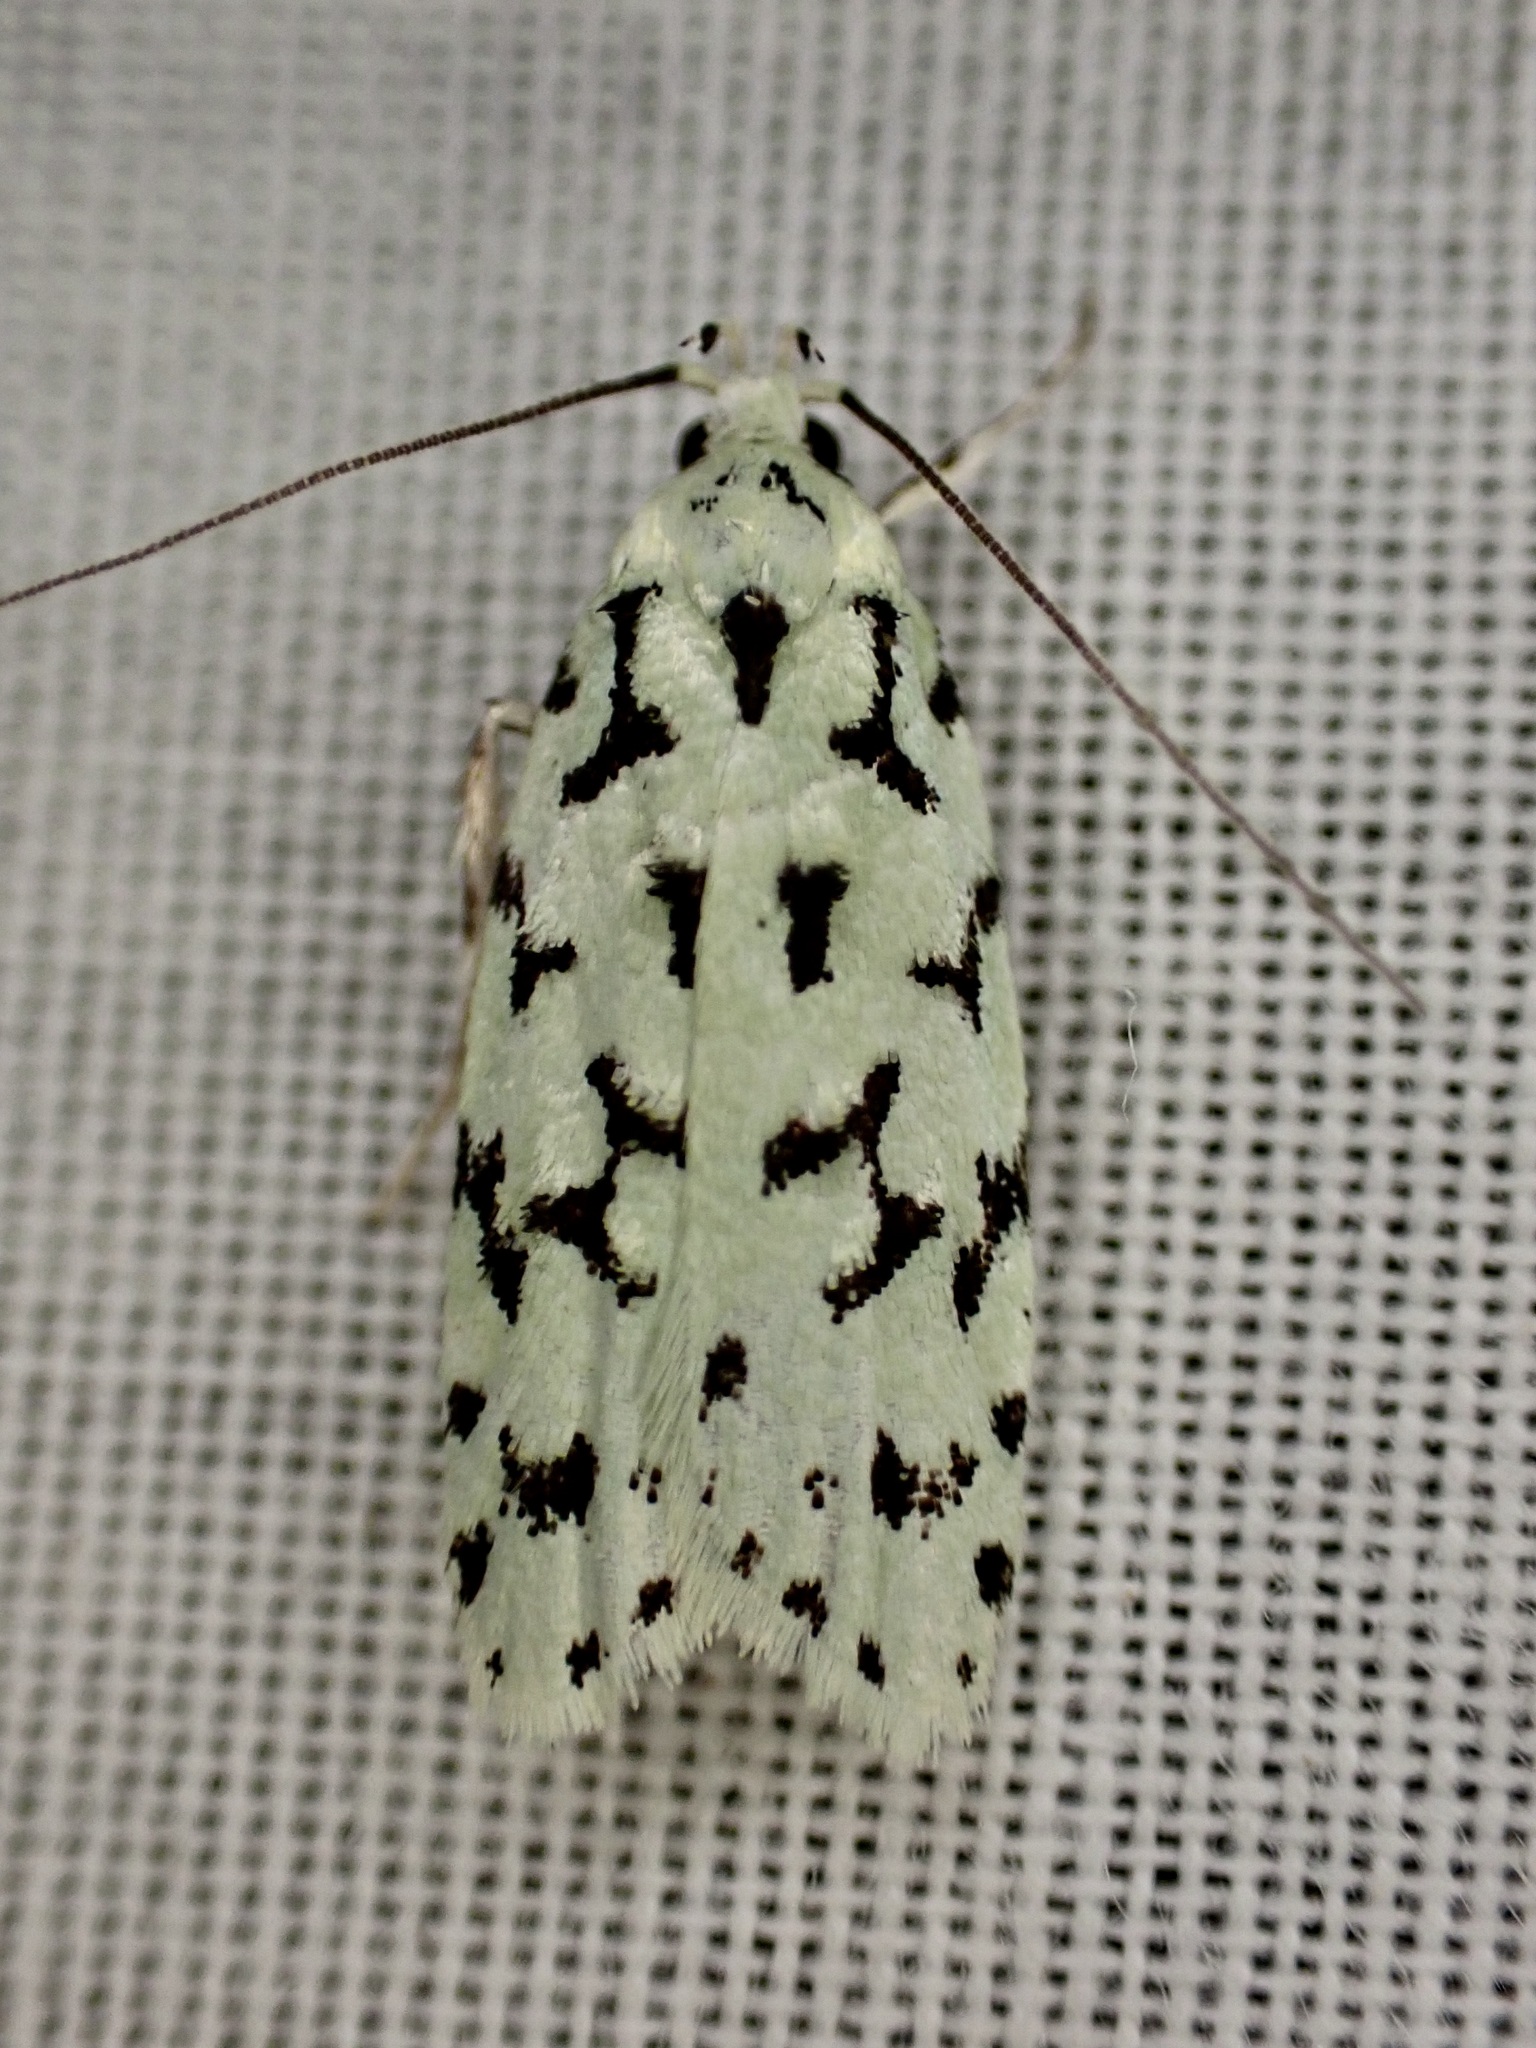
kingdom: Animalia
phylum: Arthropoda
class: Insecta
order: Lepidoptera
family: Oecophoridae
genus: Izatha
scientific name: Izatha huttoni
